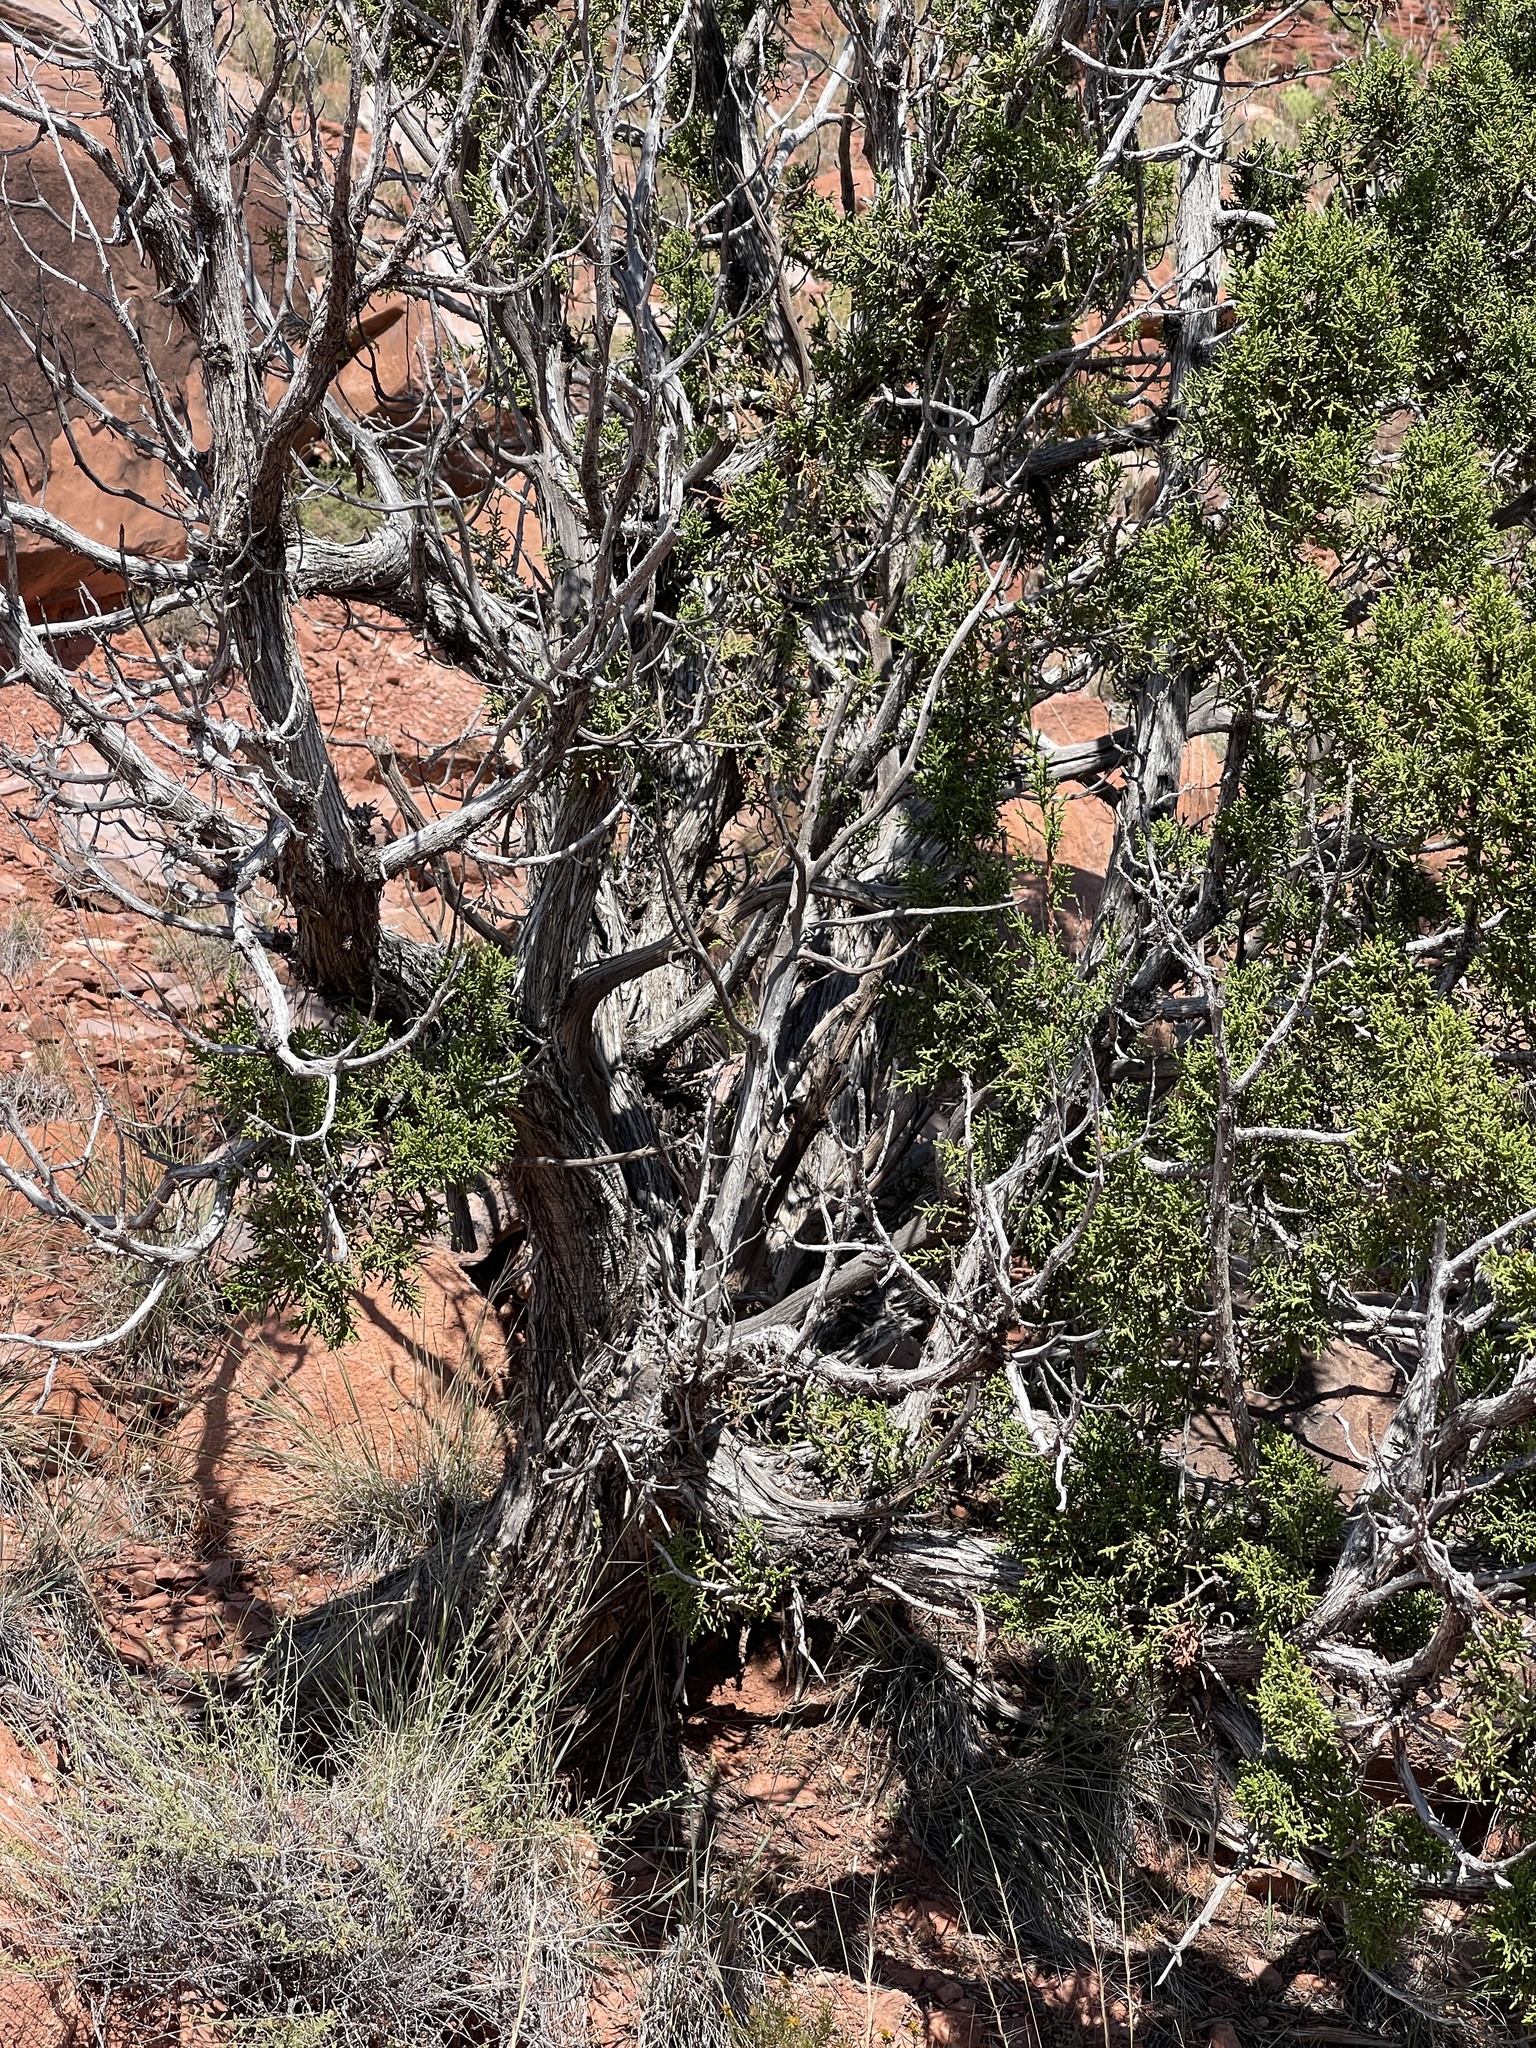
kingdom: Plantae
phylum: Tracheophyta
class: Pinopsida
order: Pinales
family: Cupressaceae
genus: Juniperus
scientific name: Juniperus osteosperma
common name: Utah juniper
